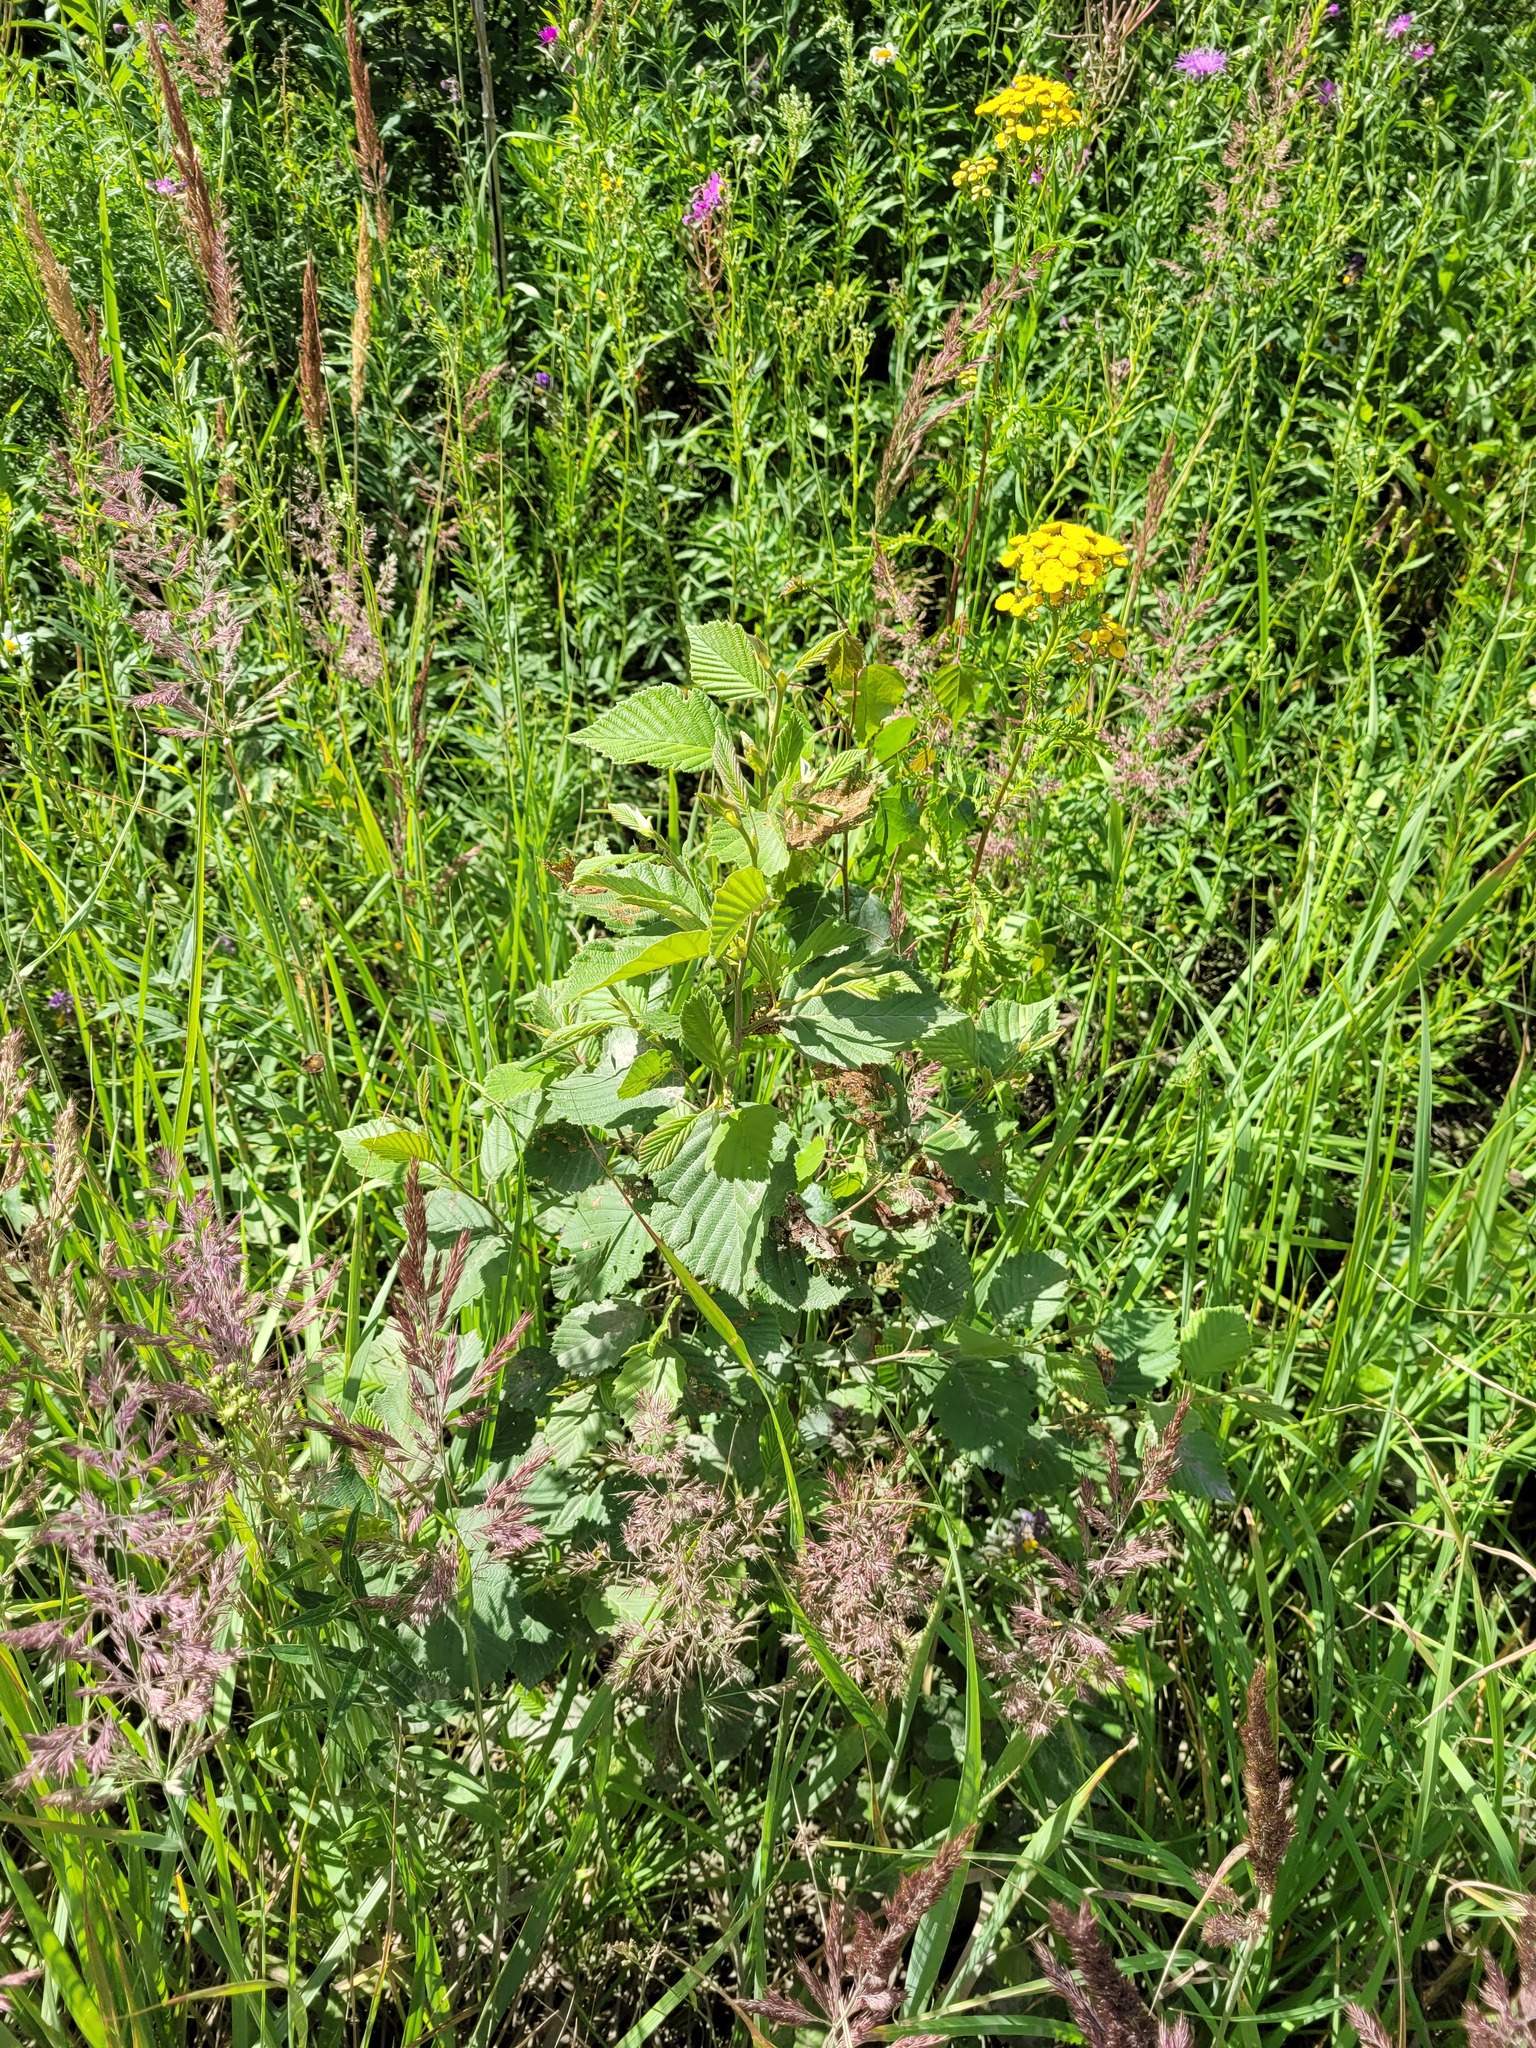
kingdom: Plantae
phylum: Tracheophyta
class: Magnoliopsida
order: Fagales
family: Betulaceae
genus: Alnus
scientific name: Alnus incana
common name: Grey alder
